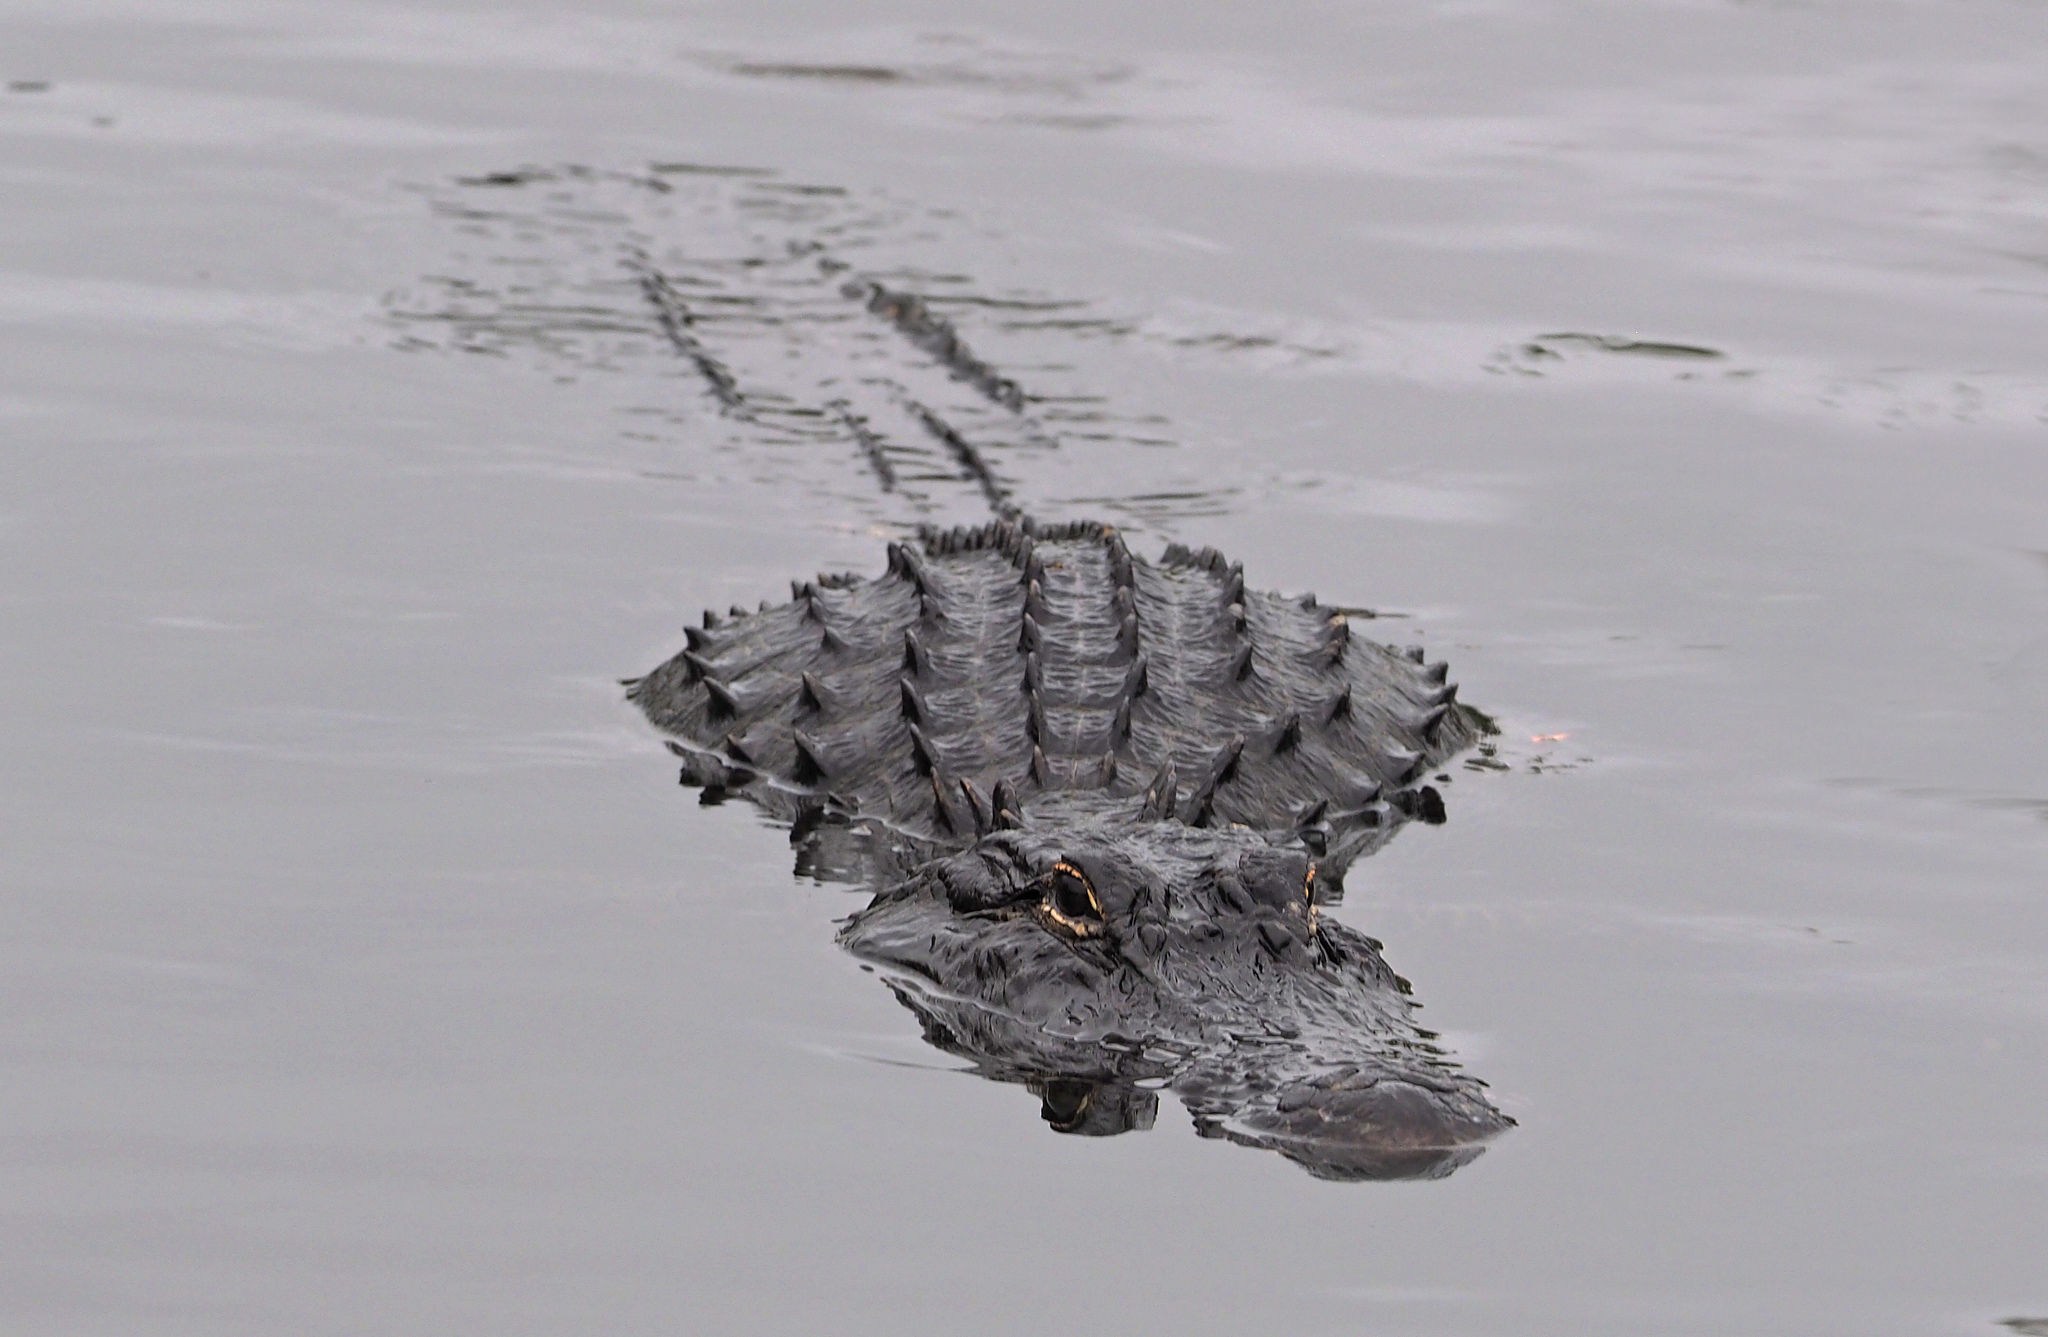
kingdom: Animalia
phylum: Chordata
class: Crocodylia
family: Alligatoridae
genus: Alligator
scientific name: Alligator mississippiensis
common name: American alligator
